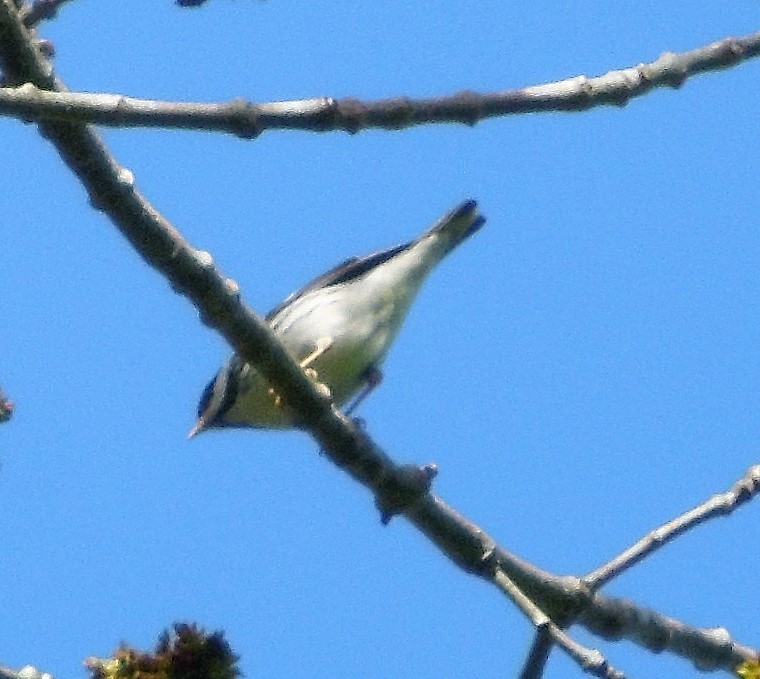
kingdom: Animalia
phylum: Chordata
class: Aves
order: Passeriformes
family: Parulidae
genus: Setophaga
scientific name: Setophaga striata
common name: Blackpoll warbler
